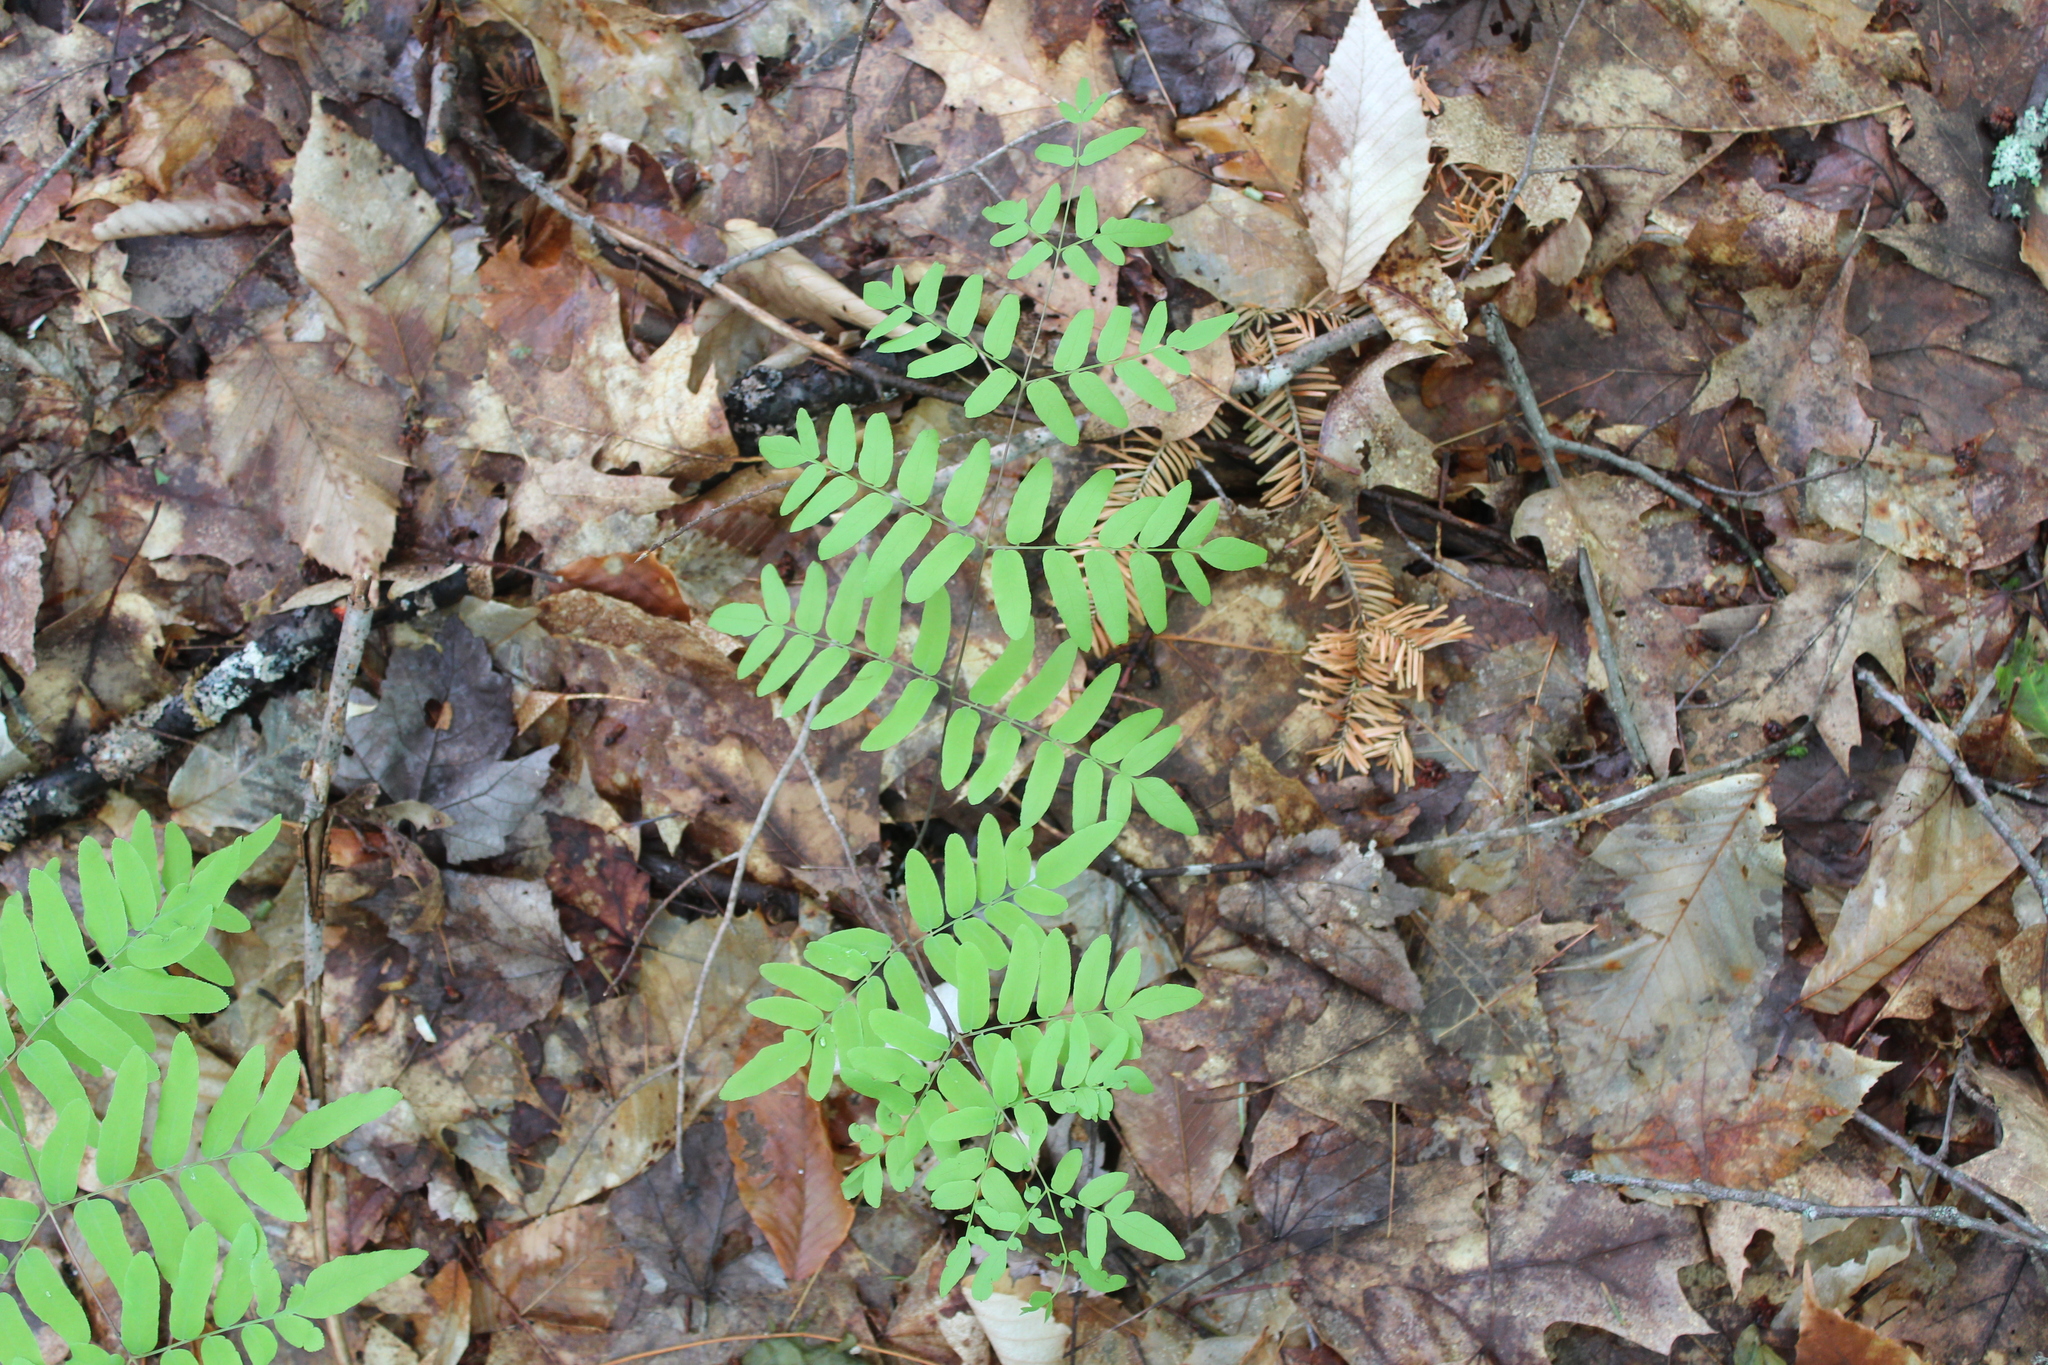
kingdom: Plantae
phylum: Tracheophyta
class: Polypodiopsida
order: Osmundales
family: Osmundaceae
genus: Osmunda
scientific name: Osmunda spectabilis
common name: American royal fern
